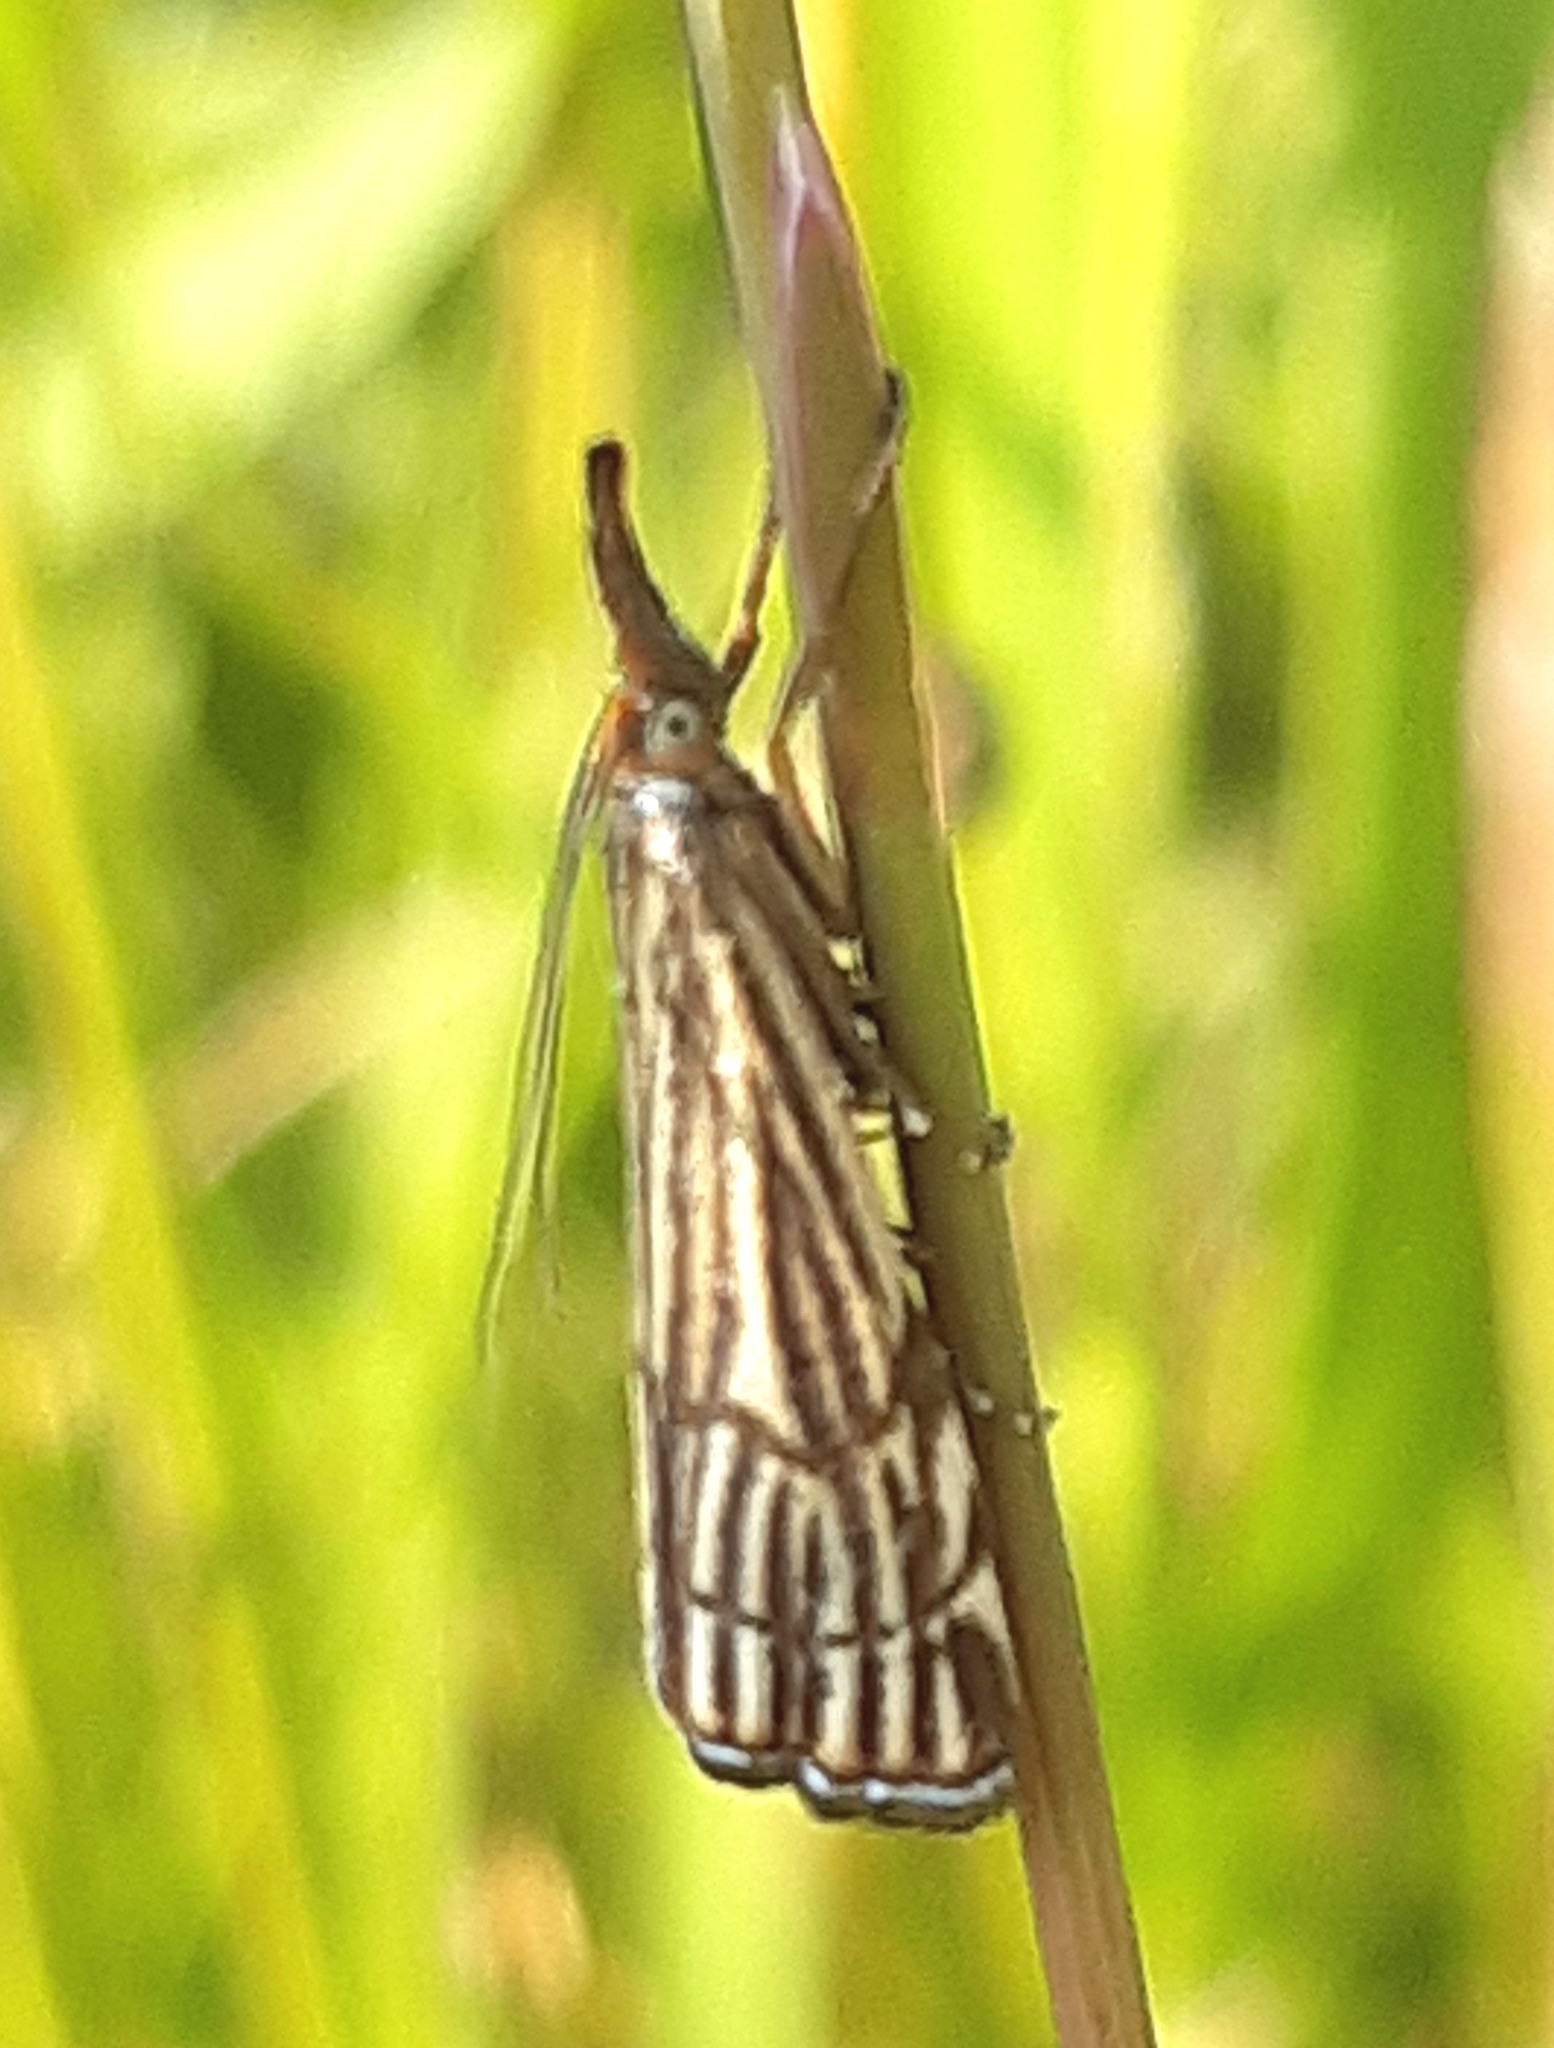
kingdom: Animalia
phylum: Arthropoda
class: Insecta
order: Lepidoptera
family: Crambidae
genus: Chrysocrambus
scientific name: Chrysocrambus Chrysocramboides craterellus
